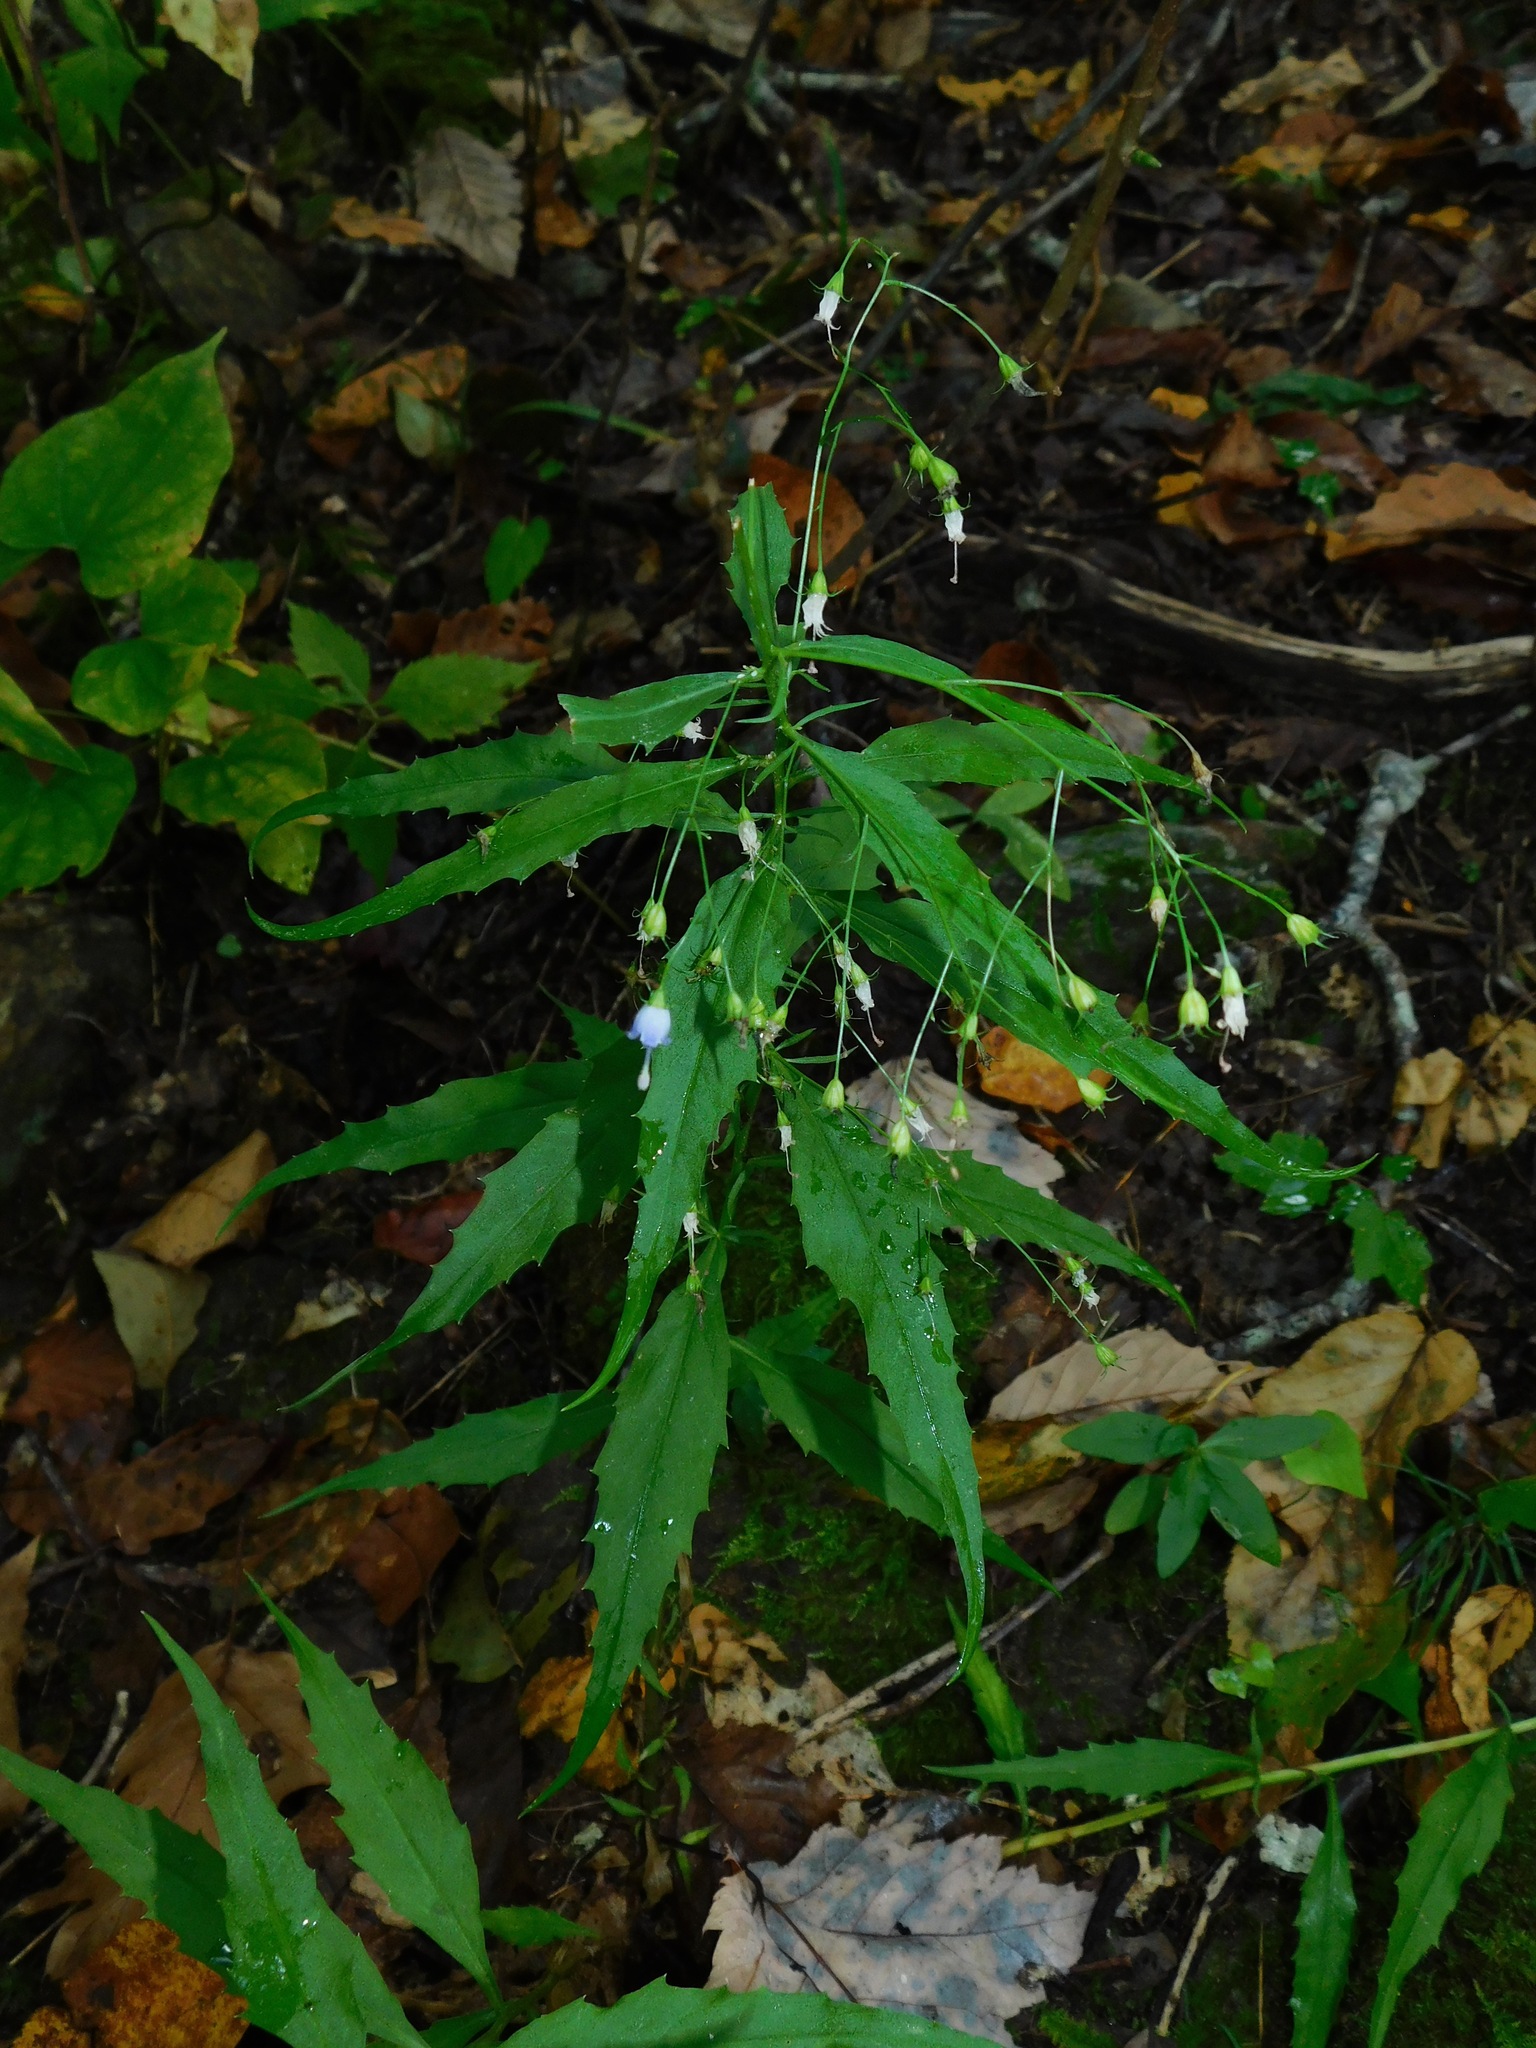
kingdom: Plantae
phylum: Tracheophyta
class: Magnoliopsida
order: Asterales
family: Campanulaceae
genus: Campanula
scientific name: Campanula divaricata
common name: Appalachian bellflower
